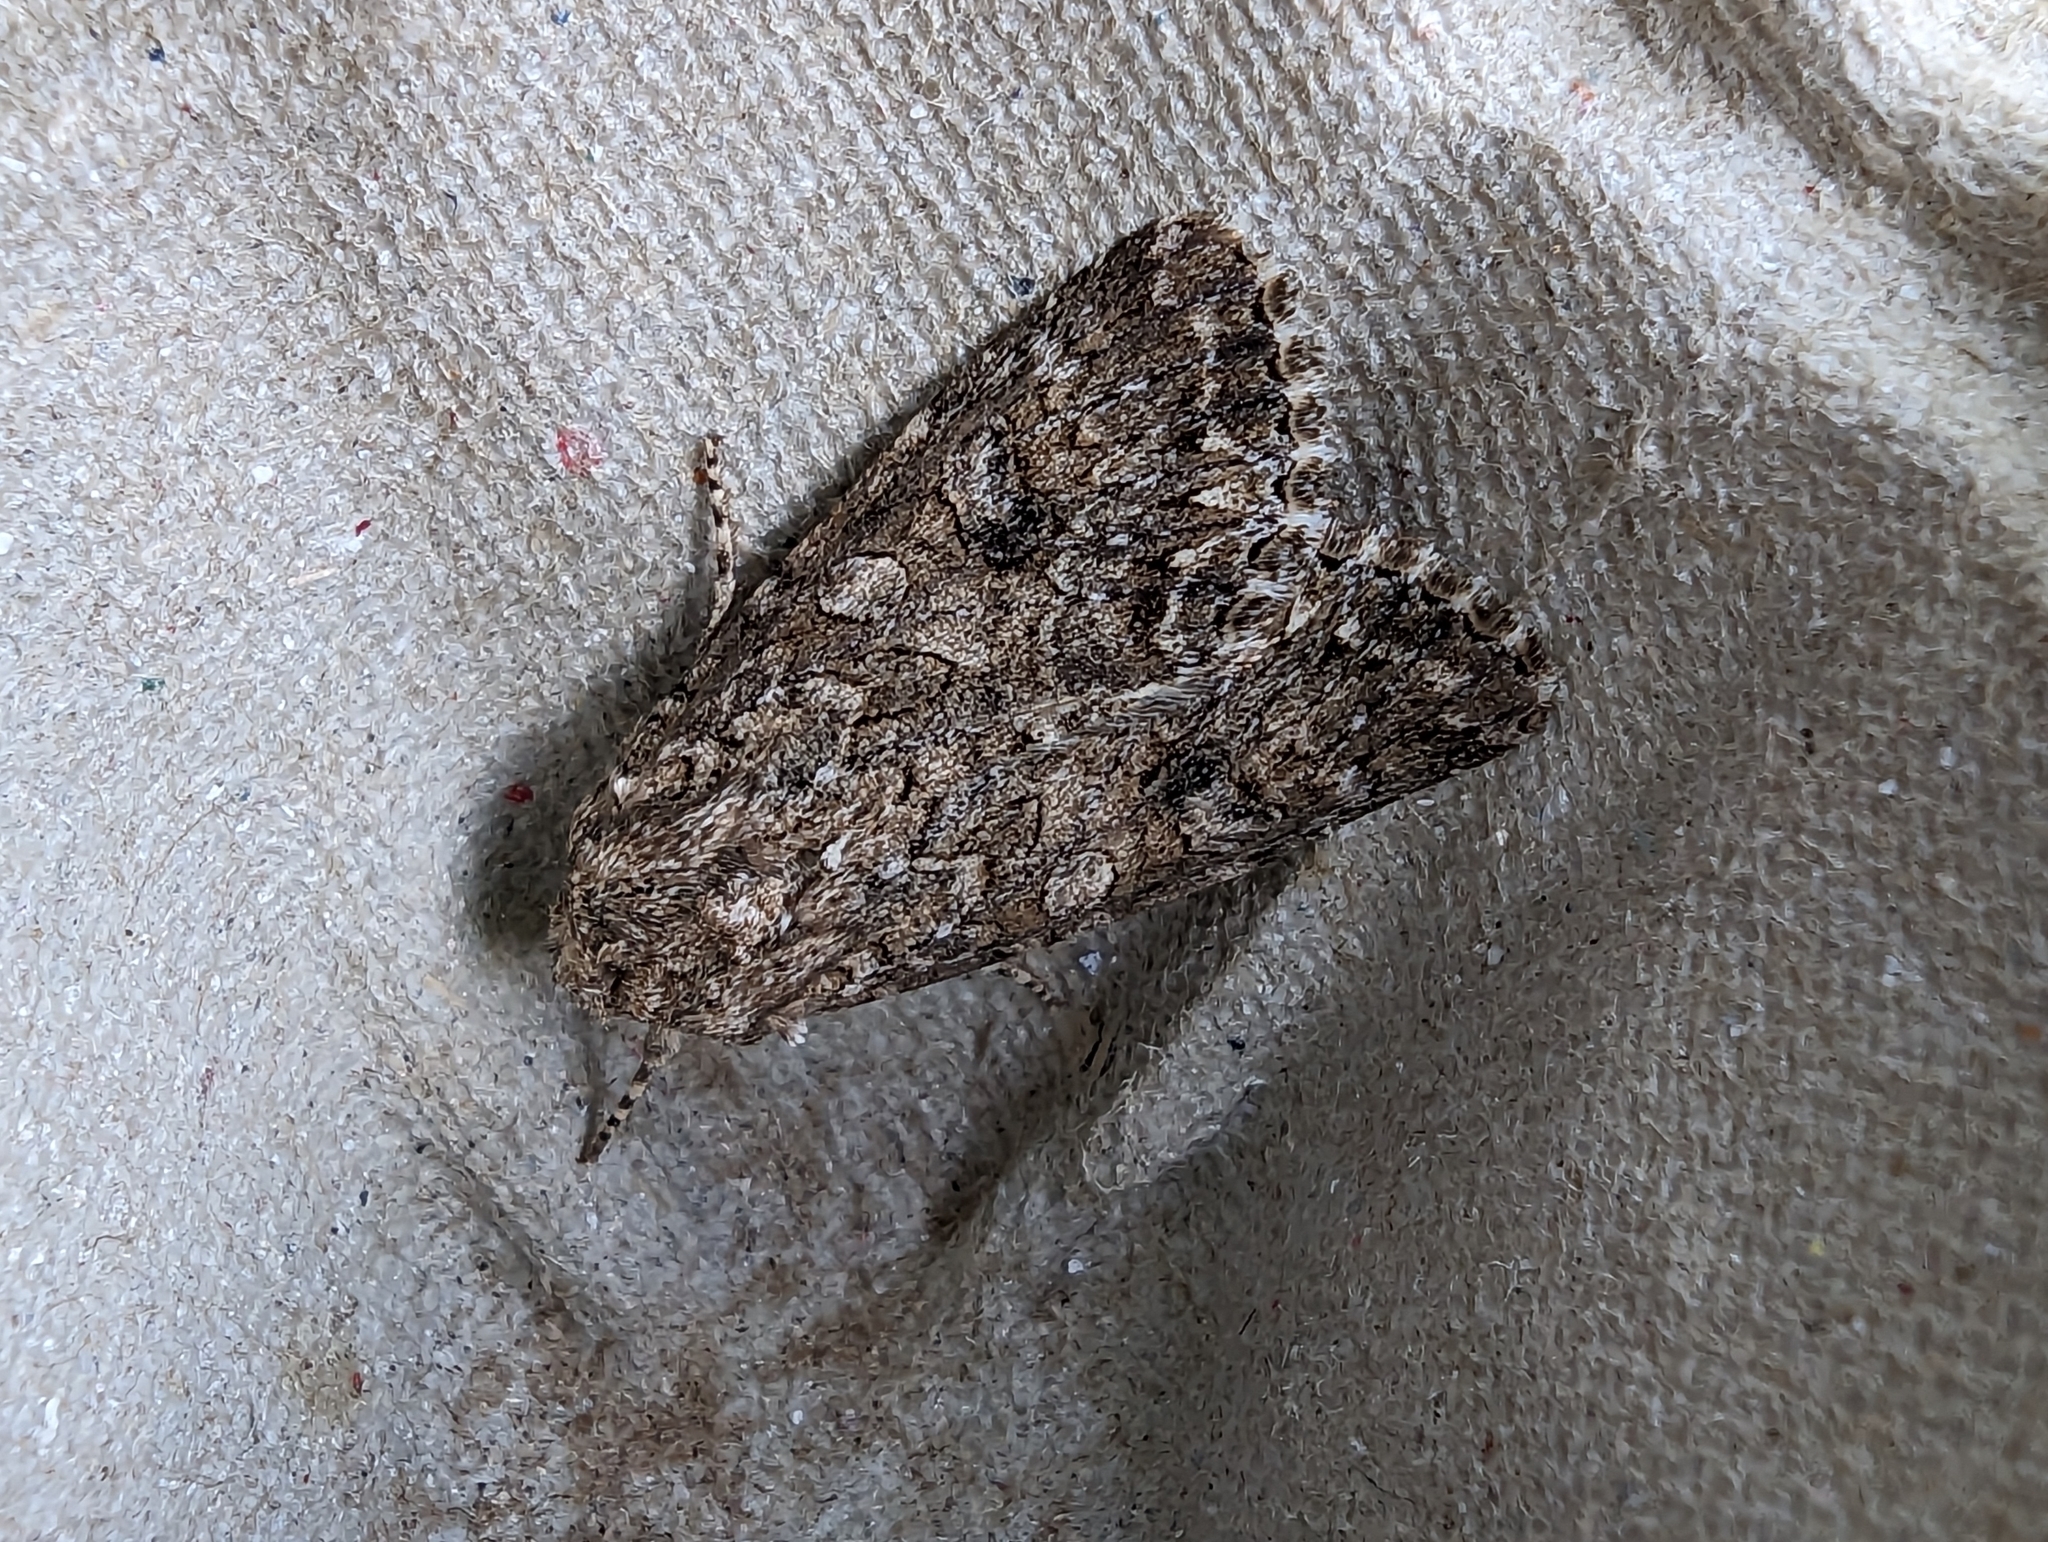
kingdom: Animalia
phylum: Arthropoda
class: Insecta
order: Lepidoptera
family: Noctuidae
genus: Anarta
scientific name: Anarta trifolii
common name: Clover cutworm moth
